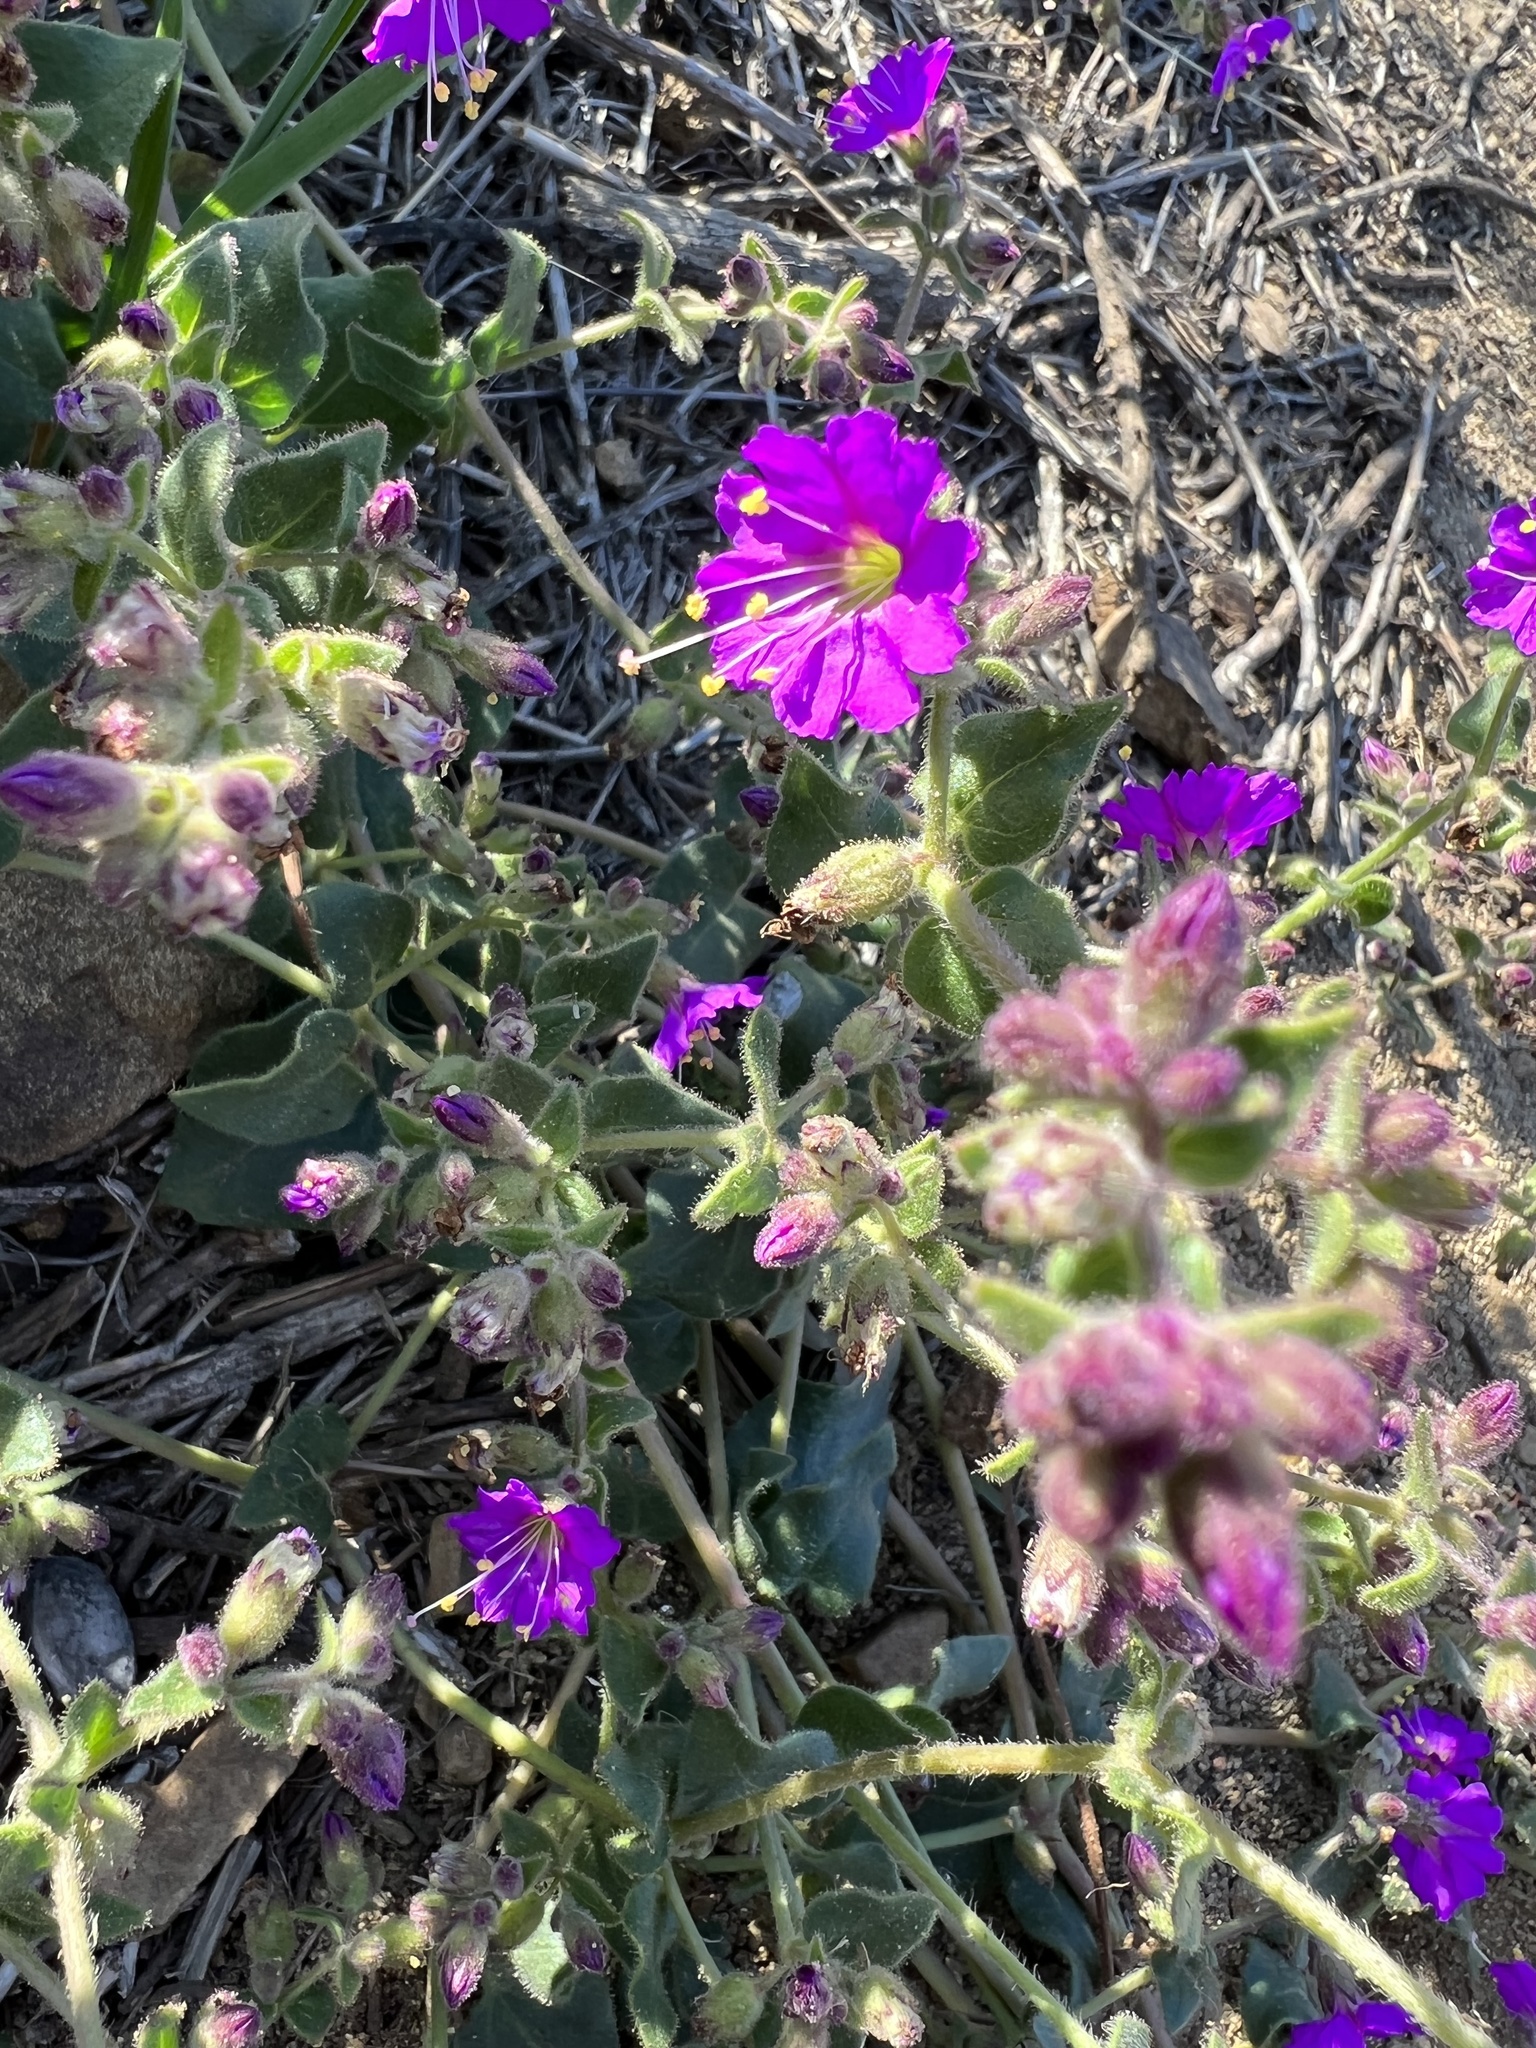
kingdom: Plantae
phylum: Tracheophyta
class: Magnoliopsida
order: Caryophyllales
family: Nyctaginaceae
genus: Mirabilis
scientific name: Mirabilis laevis
